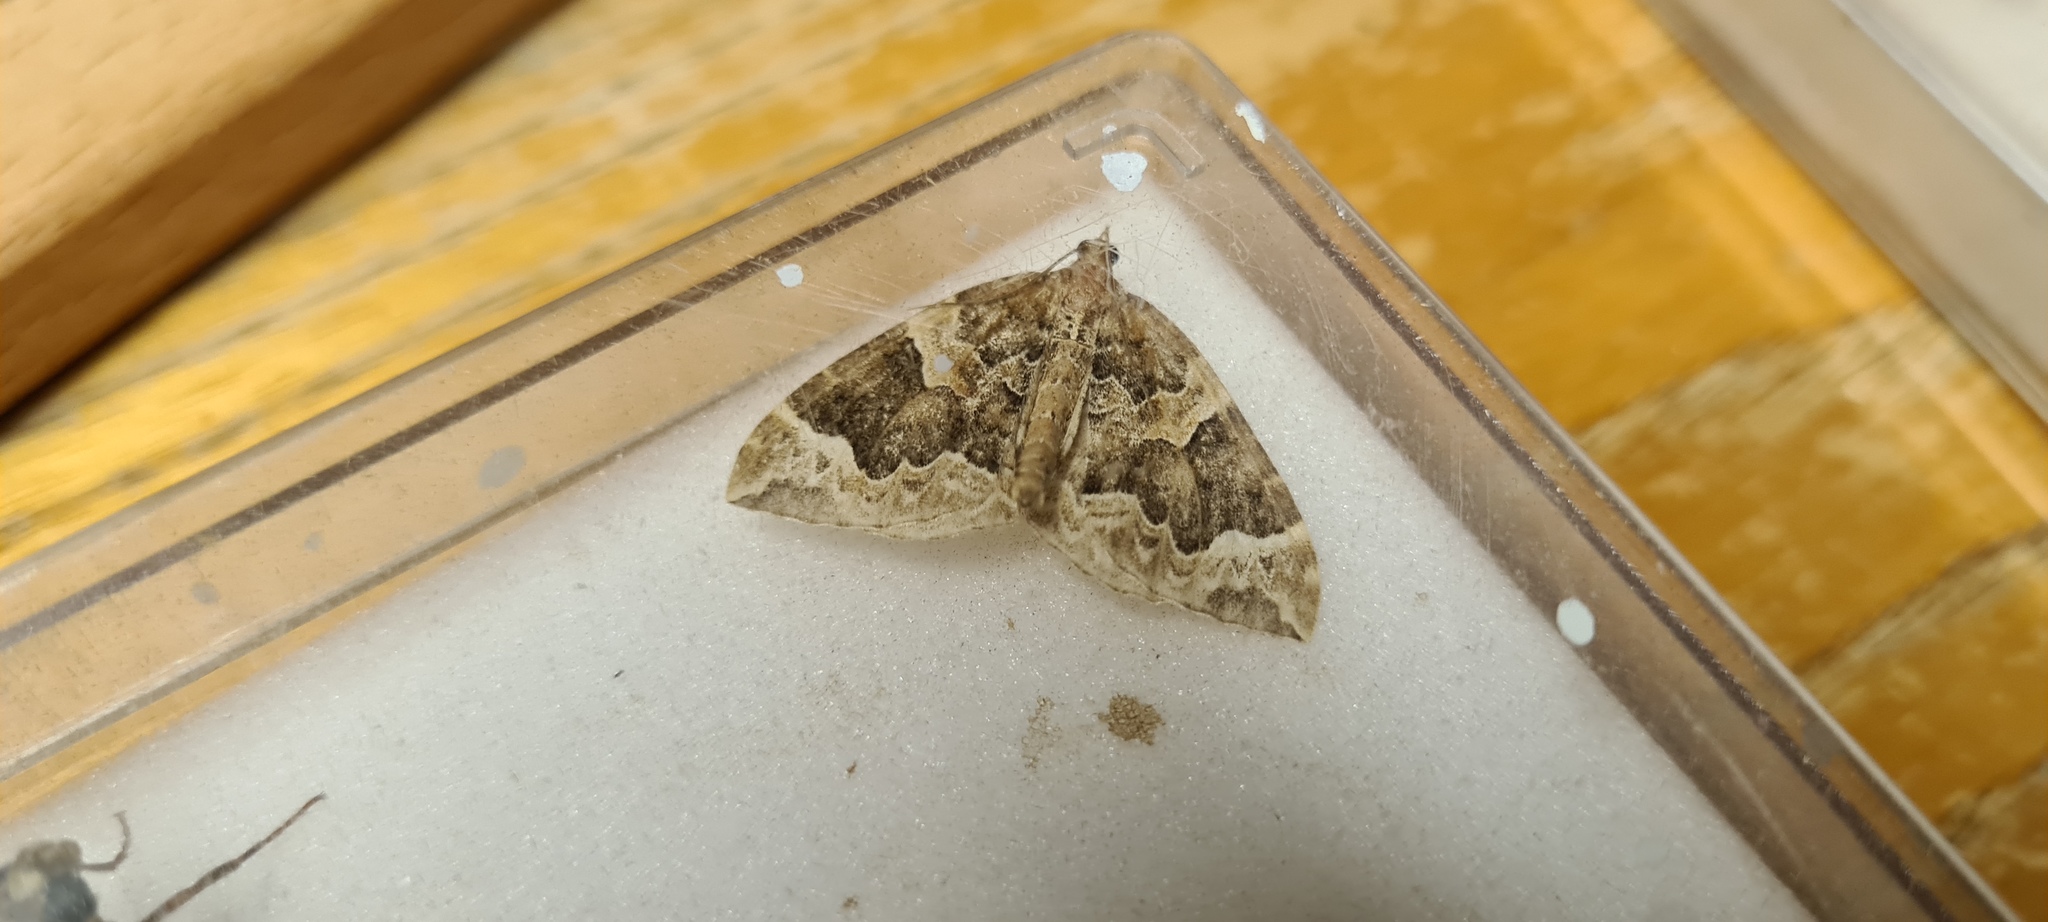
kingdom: Animalia
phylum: Arthropoda
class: Insecta
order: Lepidoptera
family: Geometridae
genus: Eulithis
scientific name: Eulithis prunata
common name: Phoenix
